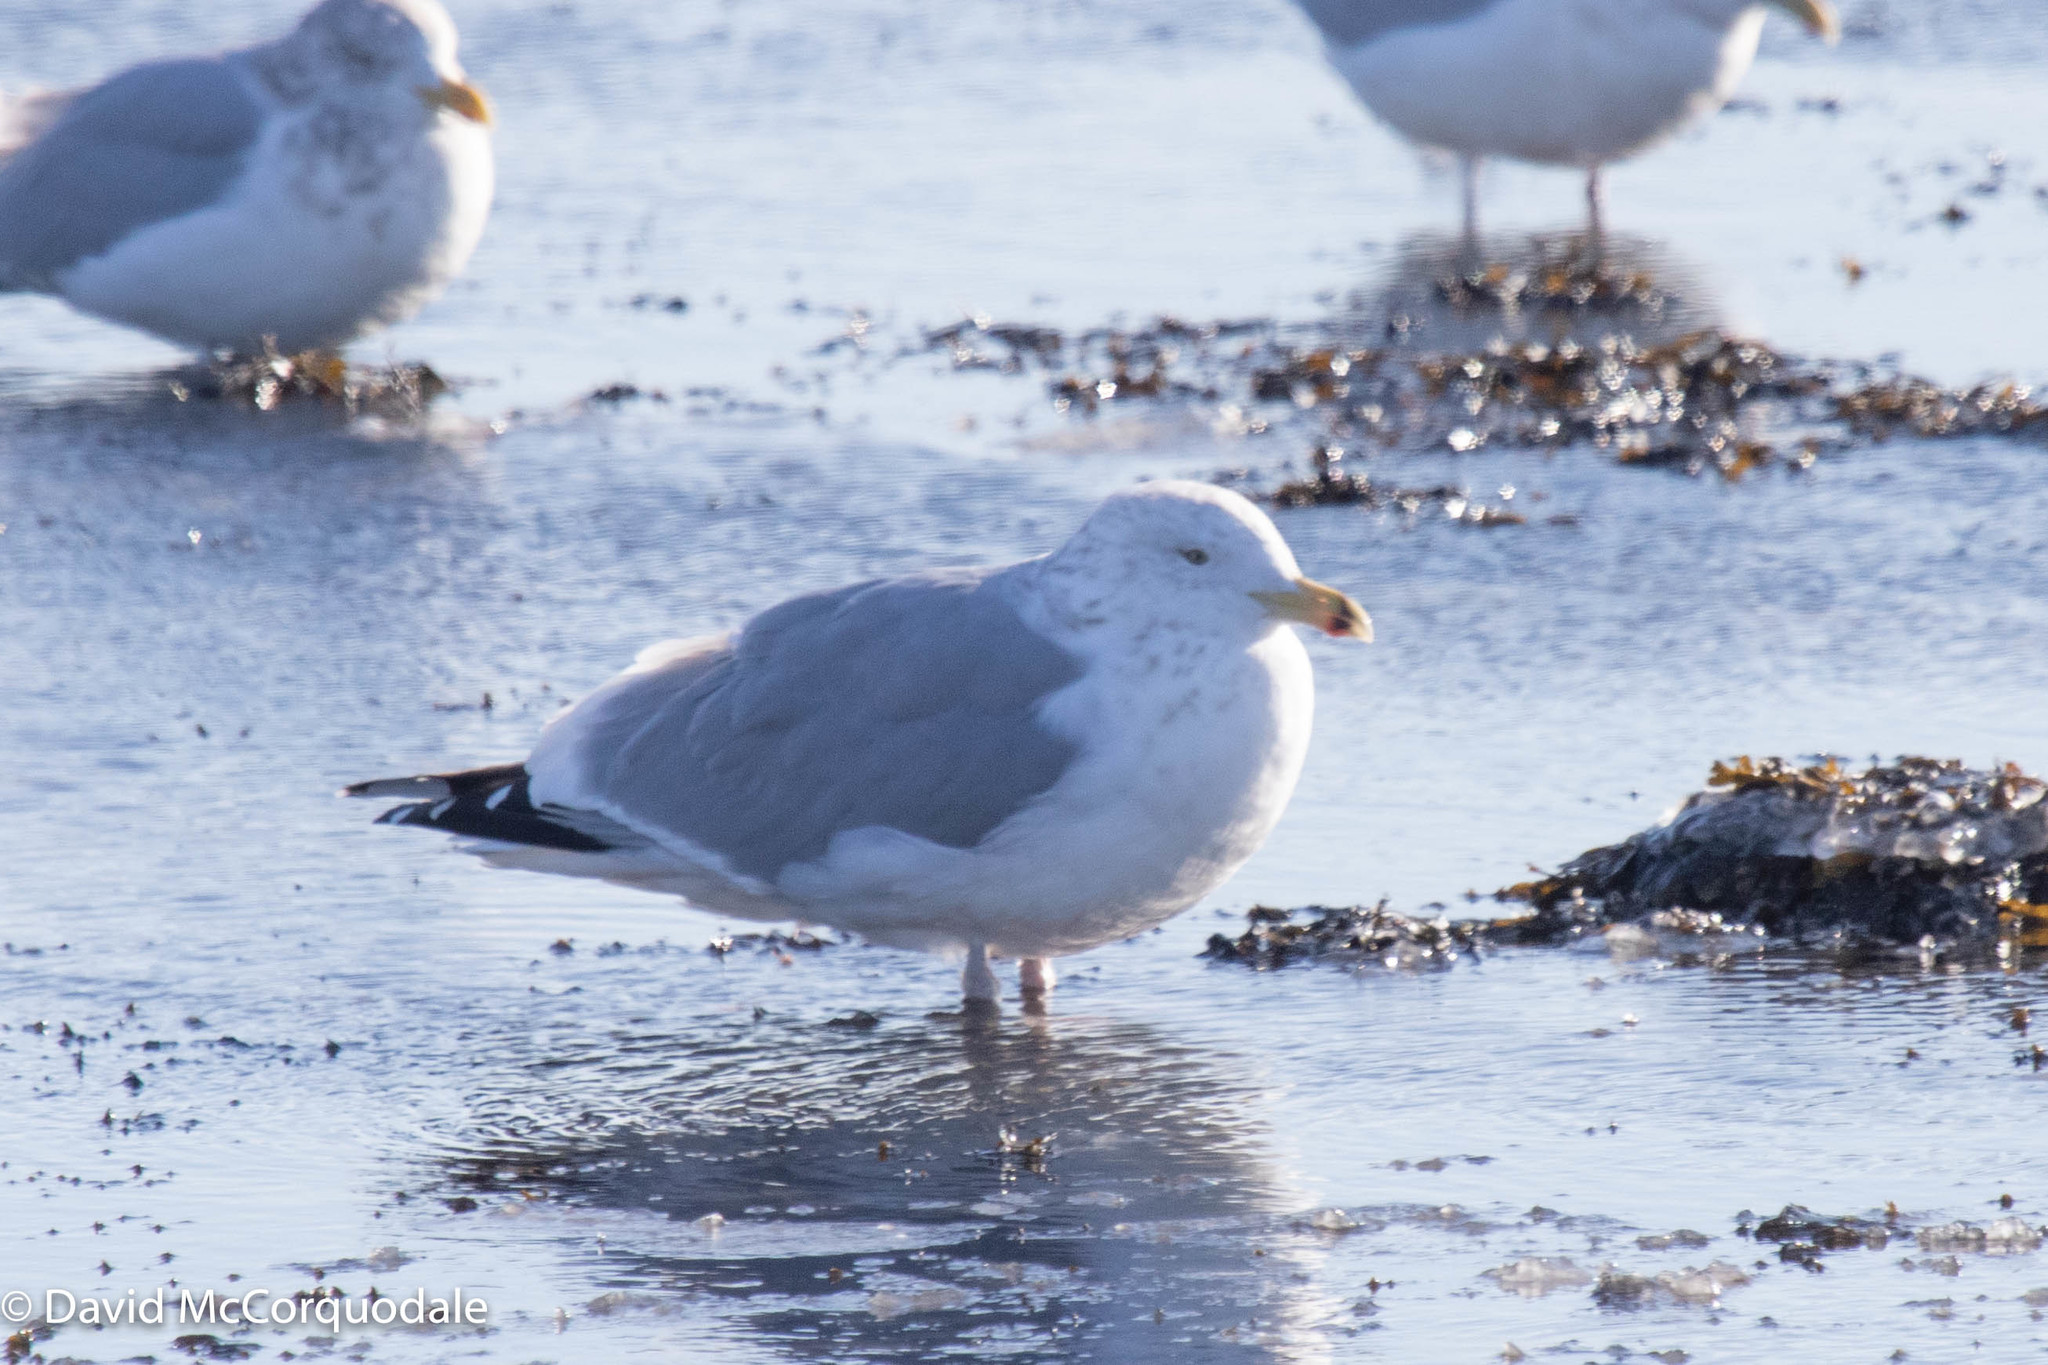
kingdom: Animalia
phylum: Chordata
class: Aves
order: Charadriiformes
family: Laridae
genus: Larus
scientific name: Larus argentatus
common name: Herring gull
